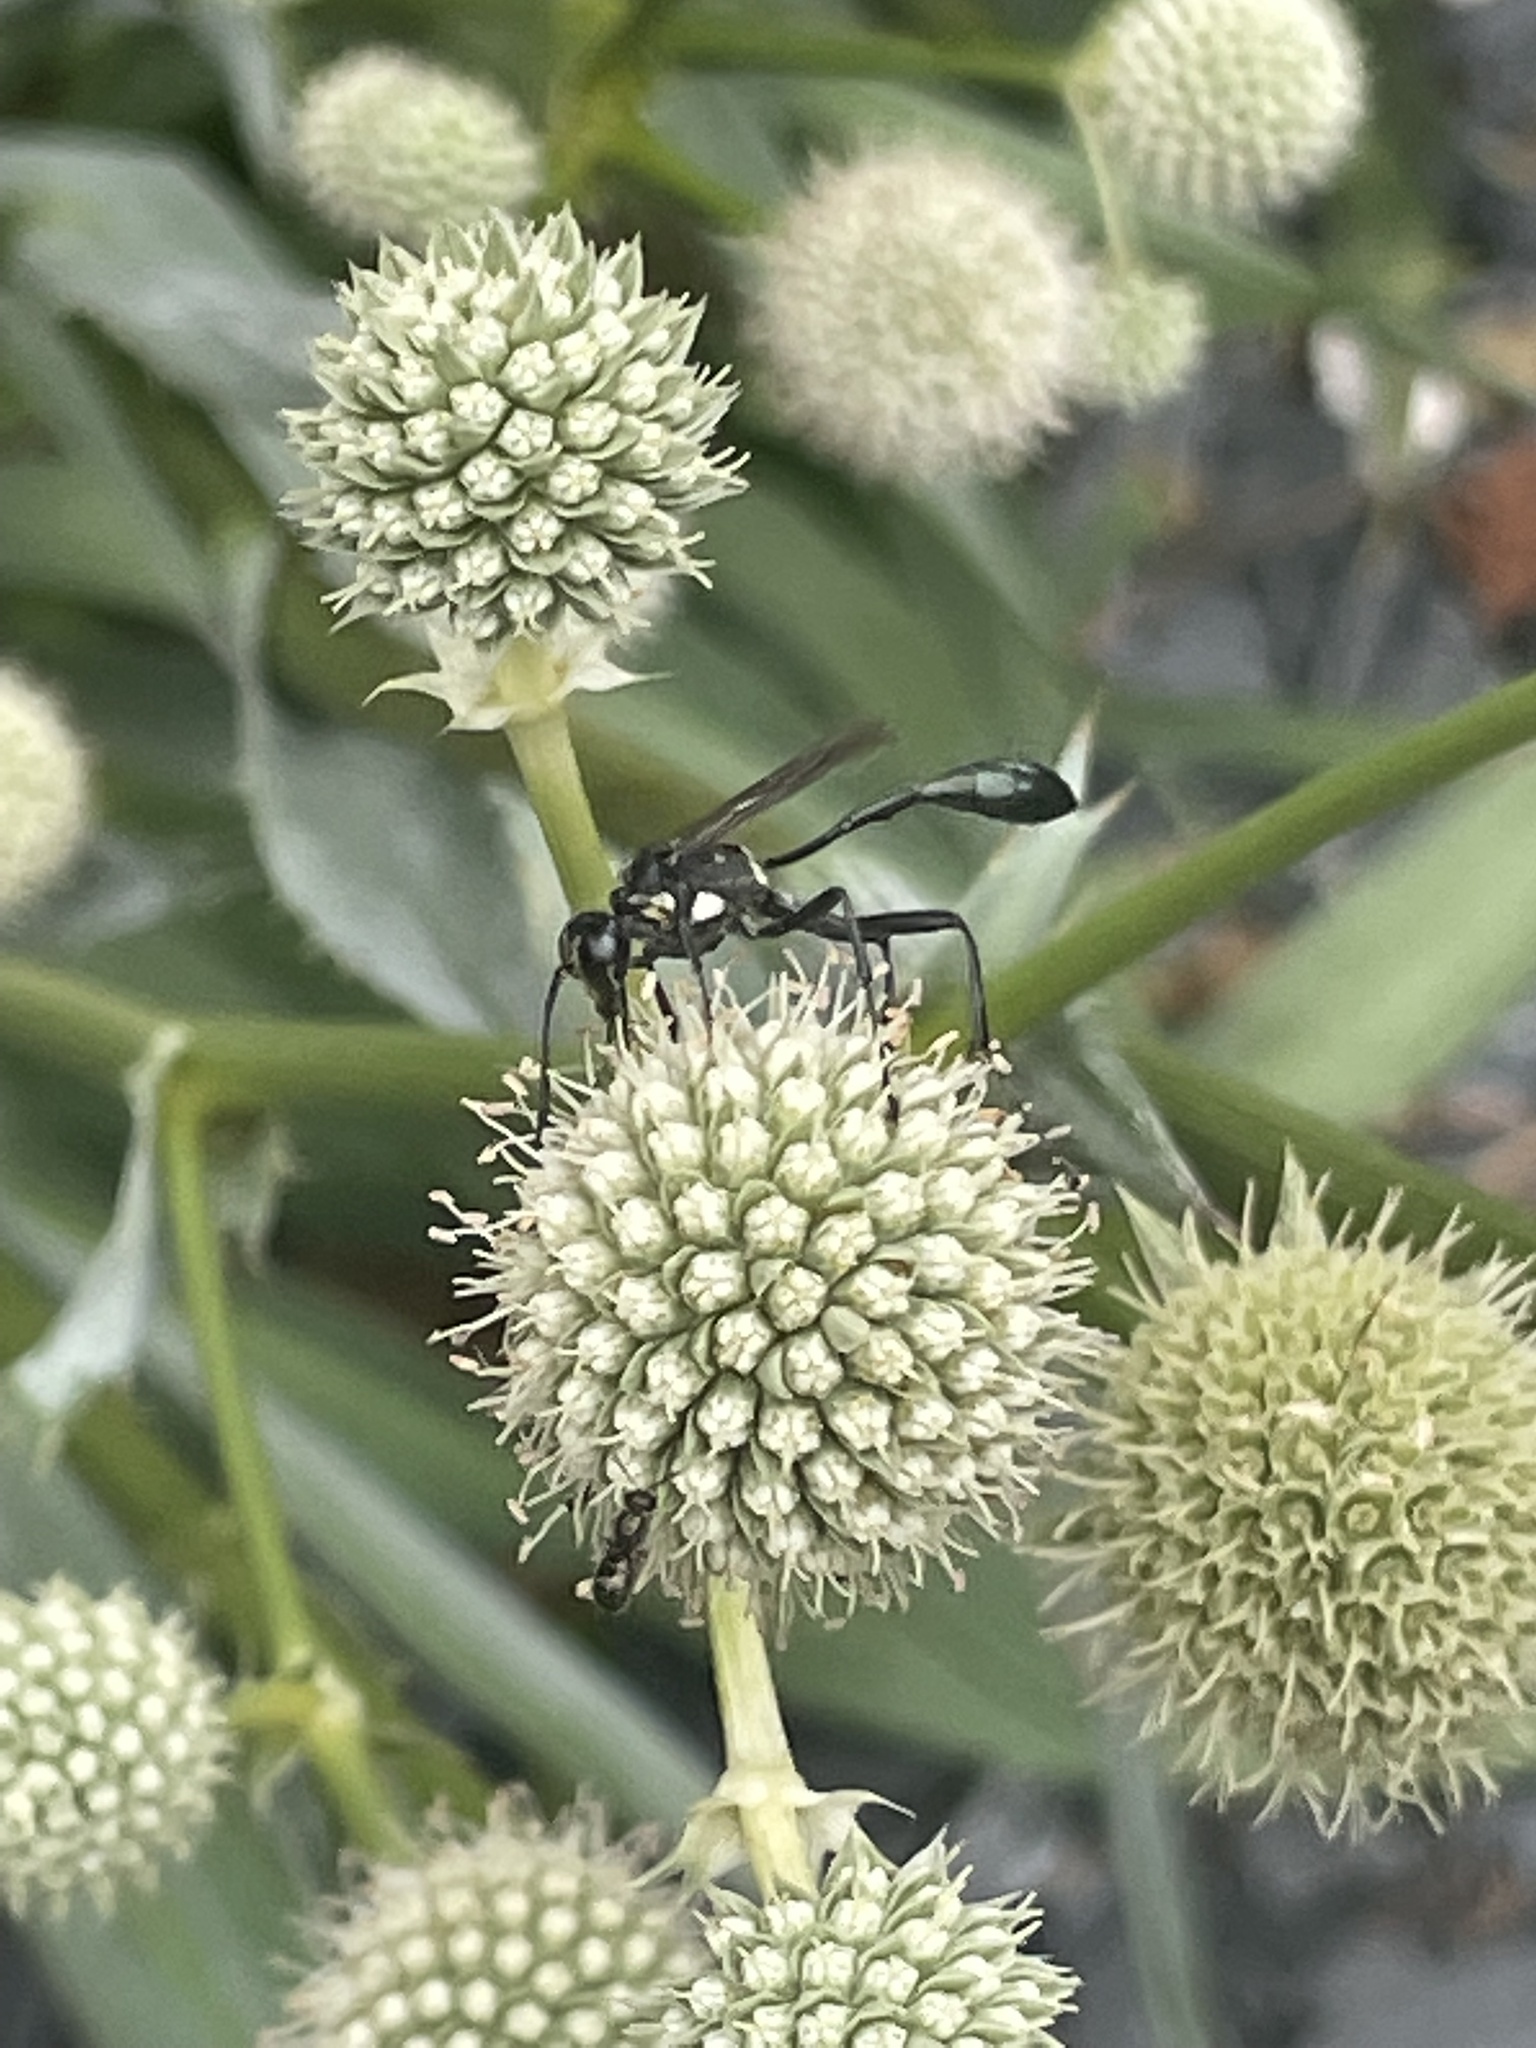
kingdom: Animalia
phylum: Arthropoda
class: Insecta
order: Hymenoptera
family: Sphecidae
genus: Eremnophila
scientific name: Eremnophila aureonotata
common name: Gold-marked thread-waisted wasp
